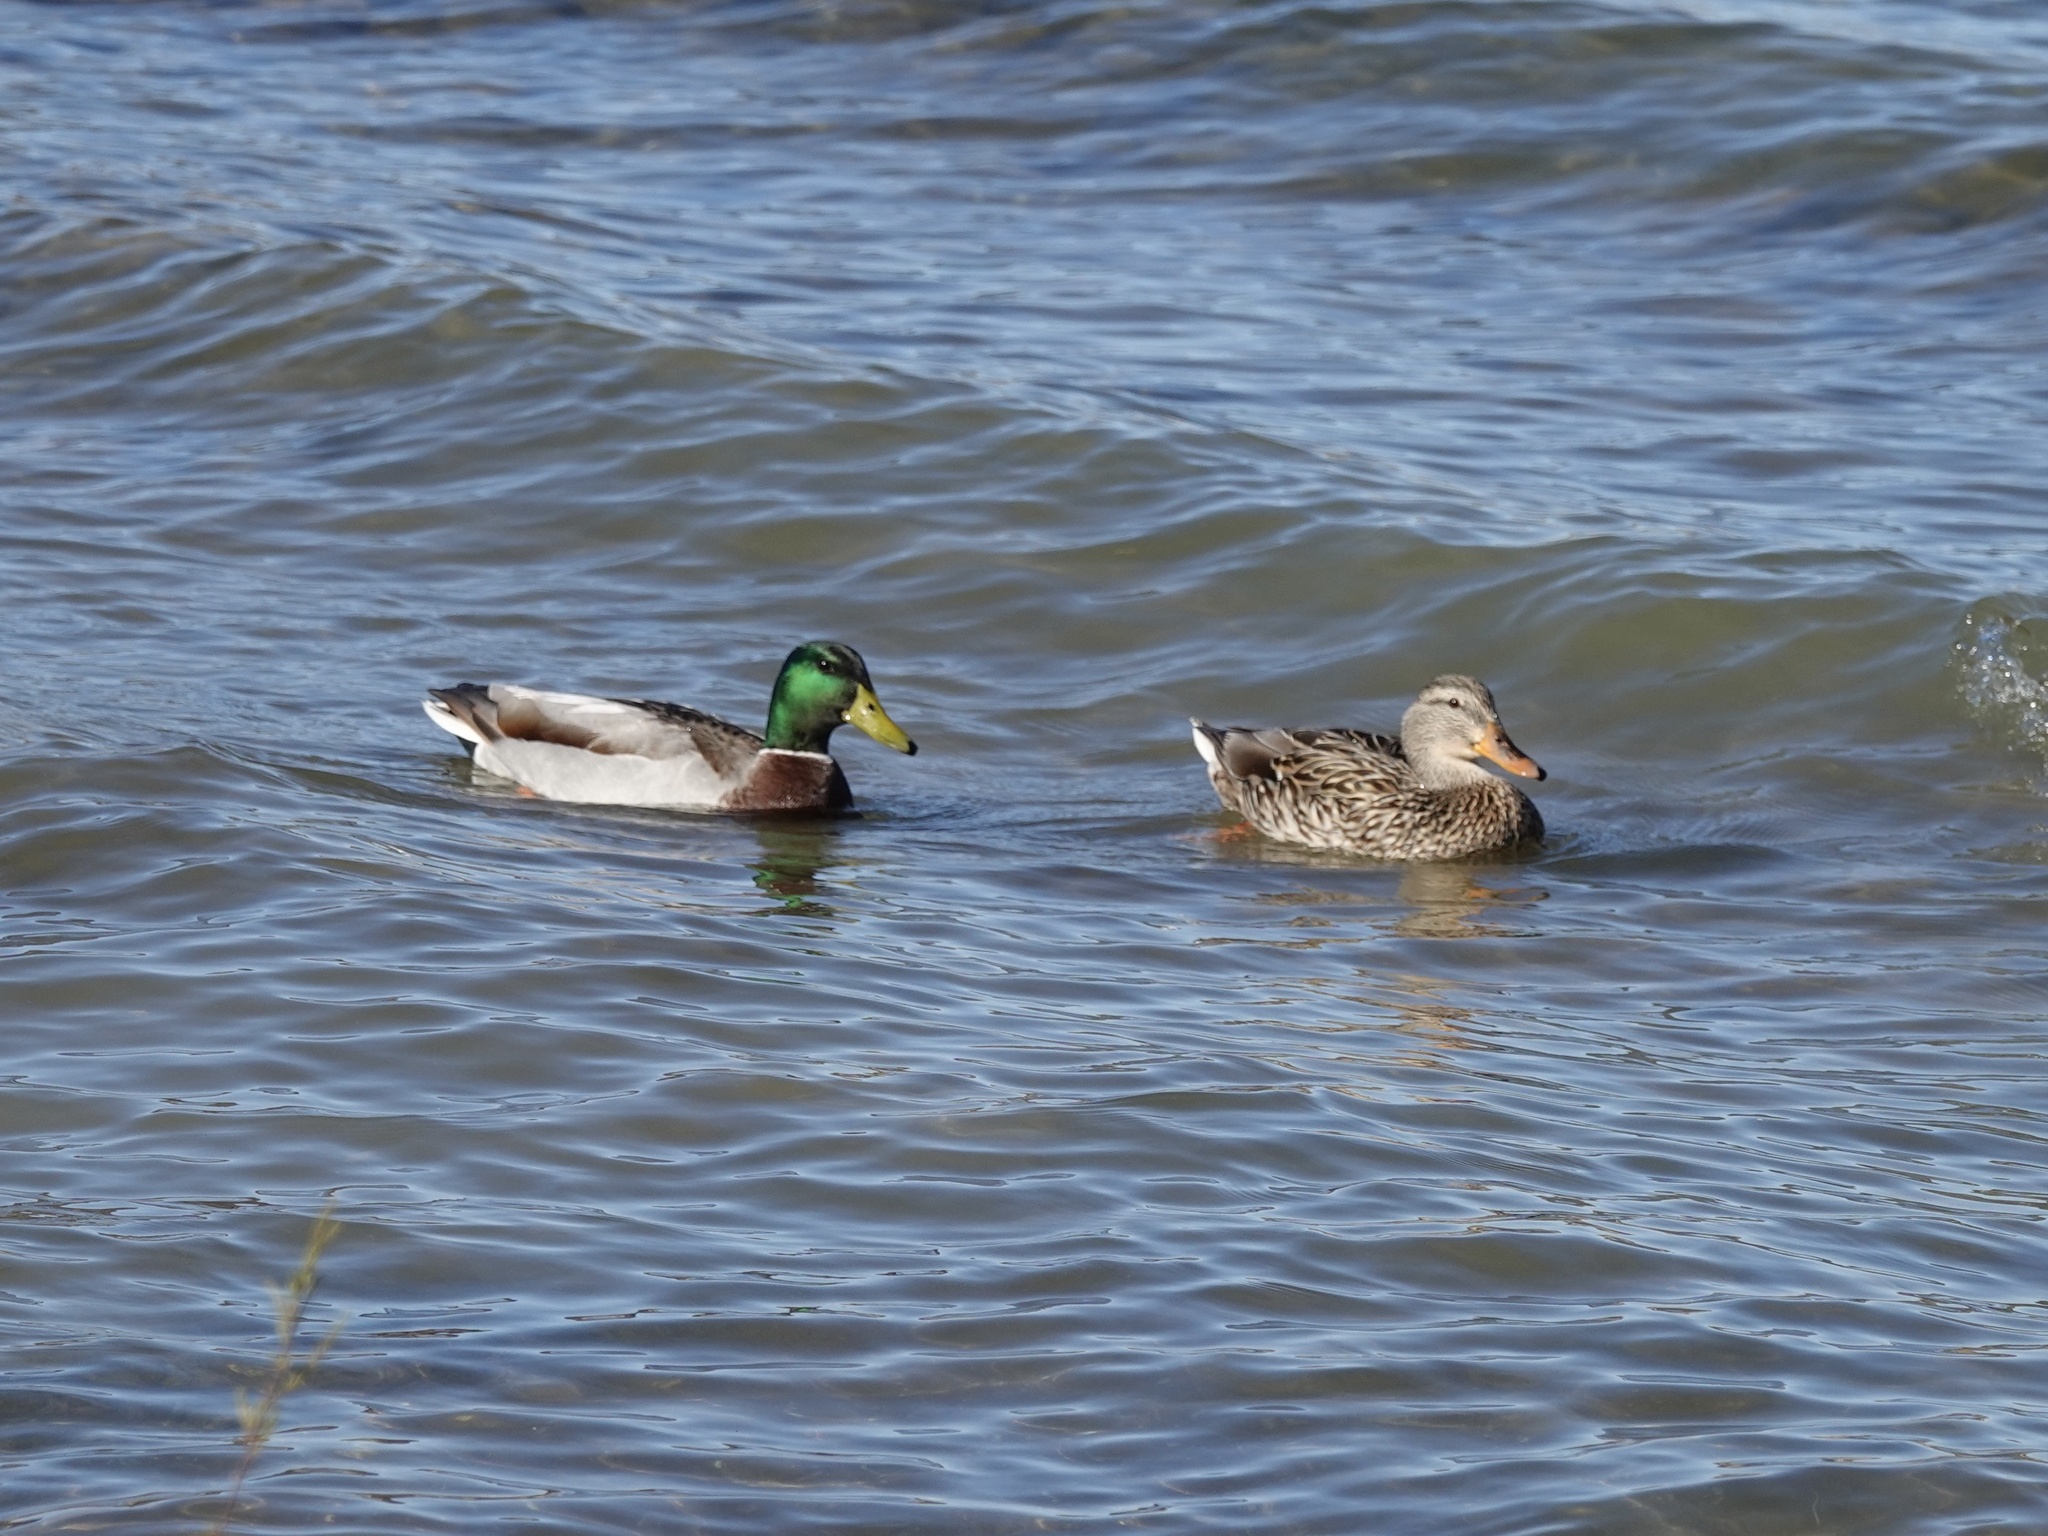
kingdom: Animalia
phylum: Chordata
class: Aves
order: Anseriformes
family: Anatidae
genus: Anas
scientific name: Anas platyrhynchos
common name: Mallard
